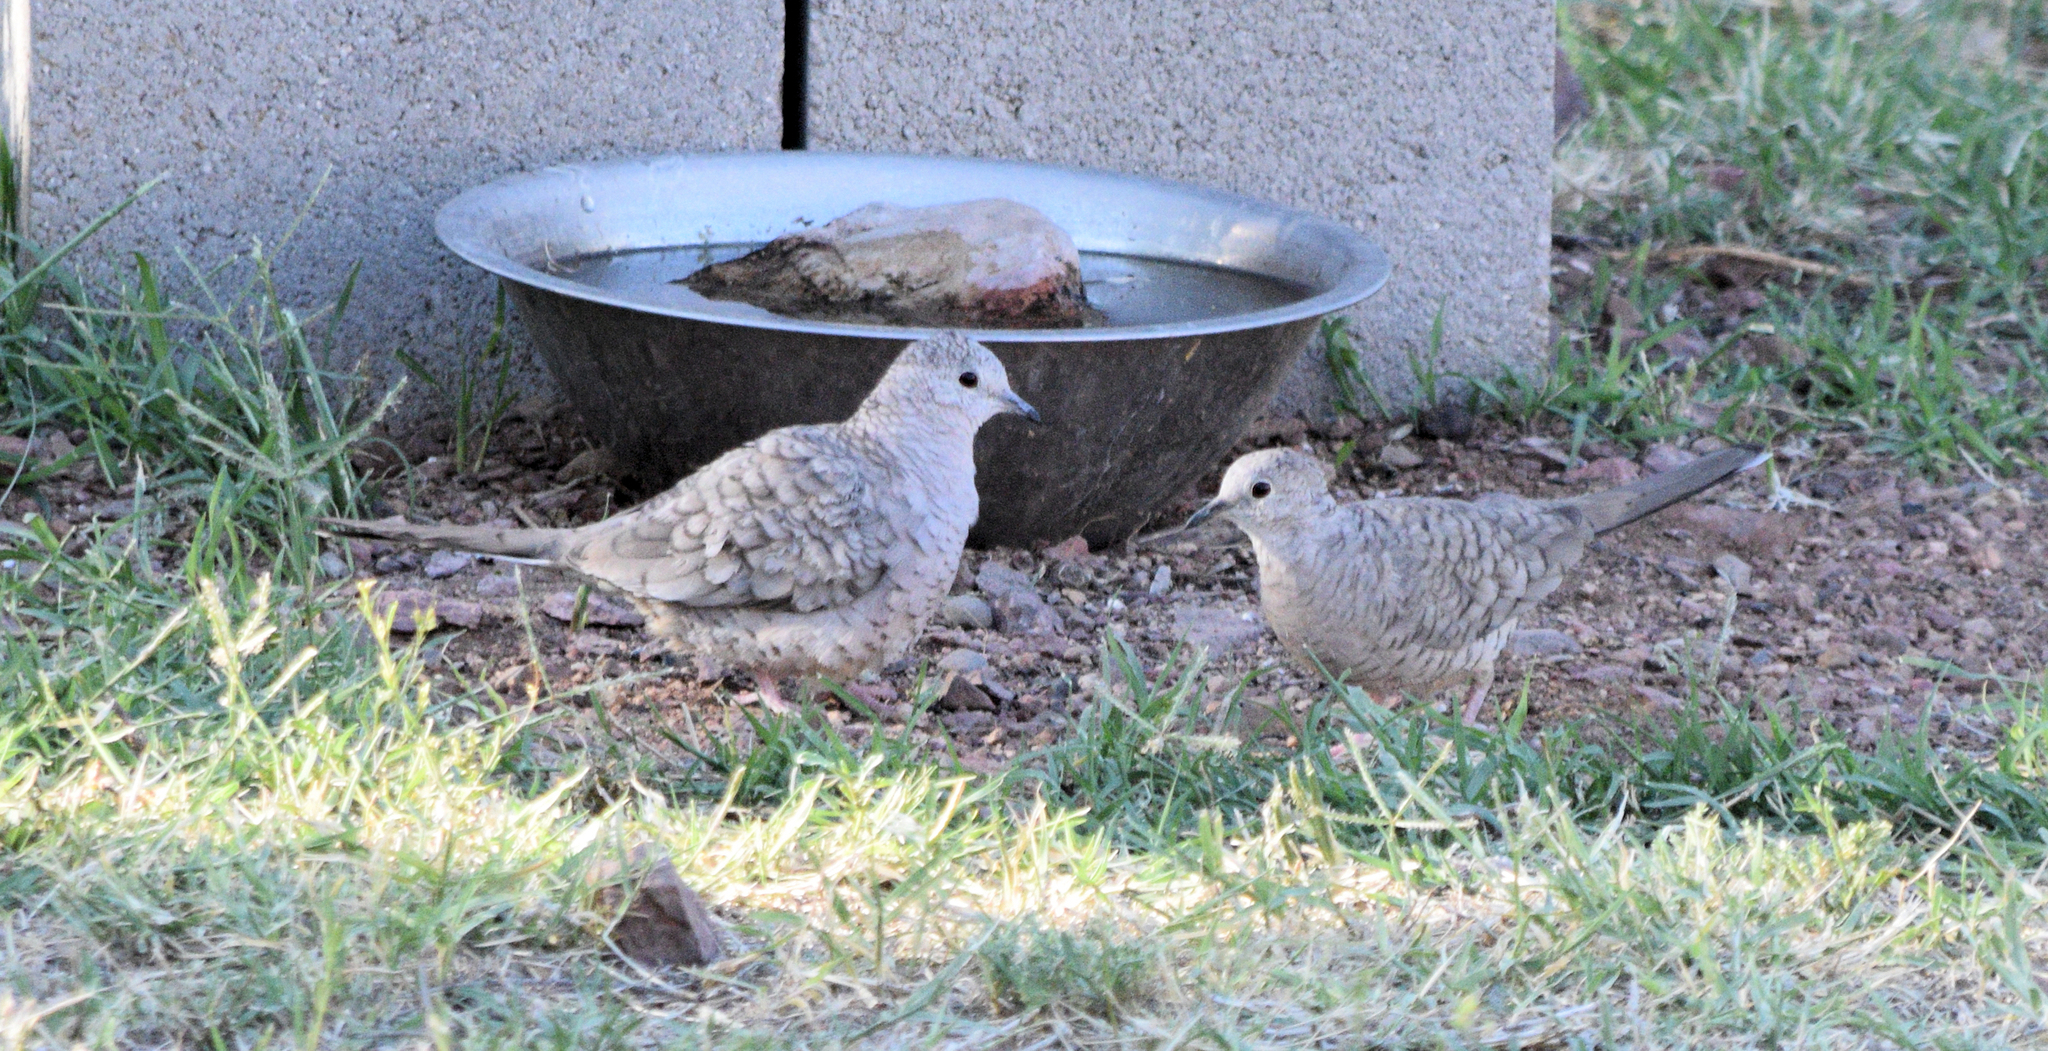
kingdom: Animalia
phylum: Chordata
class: Aves
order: Columbiformes
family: Columbidae
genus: Columbina
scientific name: Columbina inca
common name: Inca dove
